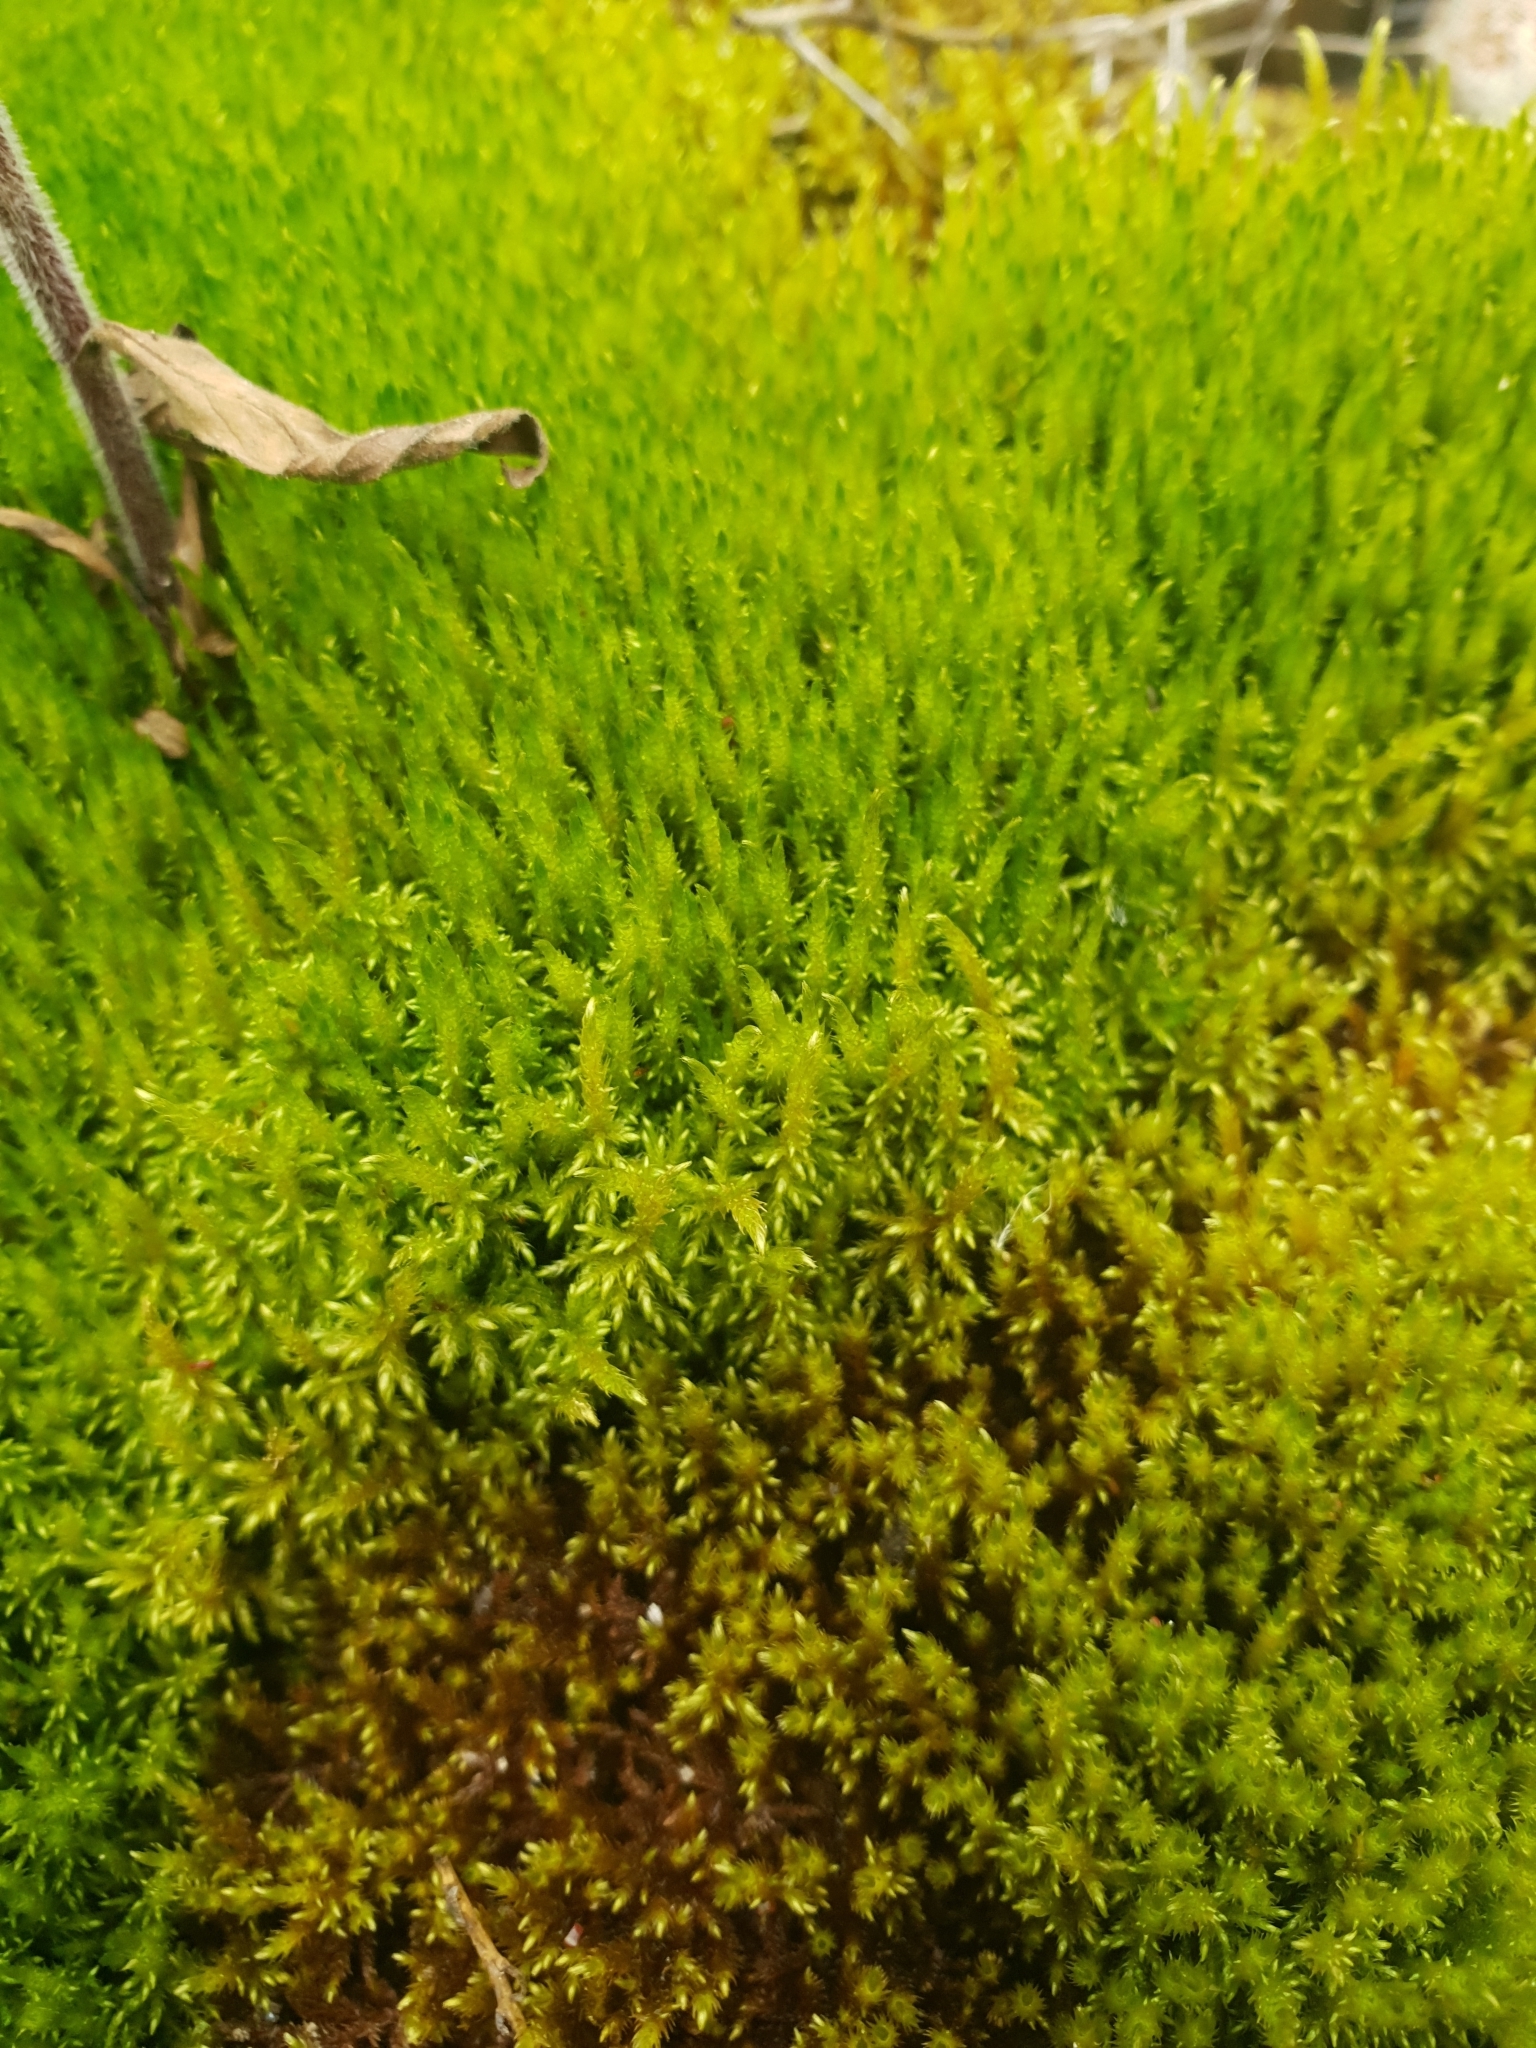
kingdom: Plantae
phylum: Bryophyta
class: Bryopsida
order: Hypnales
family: Amblystegiaceae
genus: Cratoneuron
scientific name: Cratoneuron filicinum
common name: Fern-leaved hook moss
